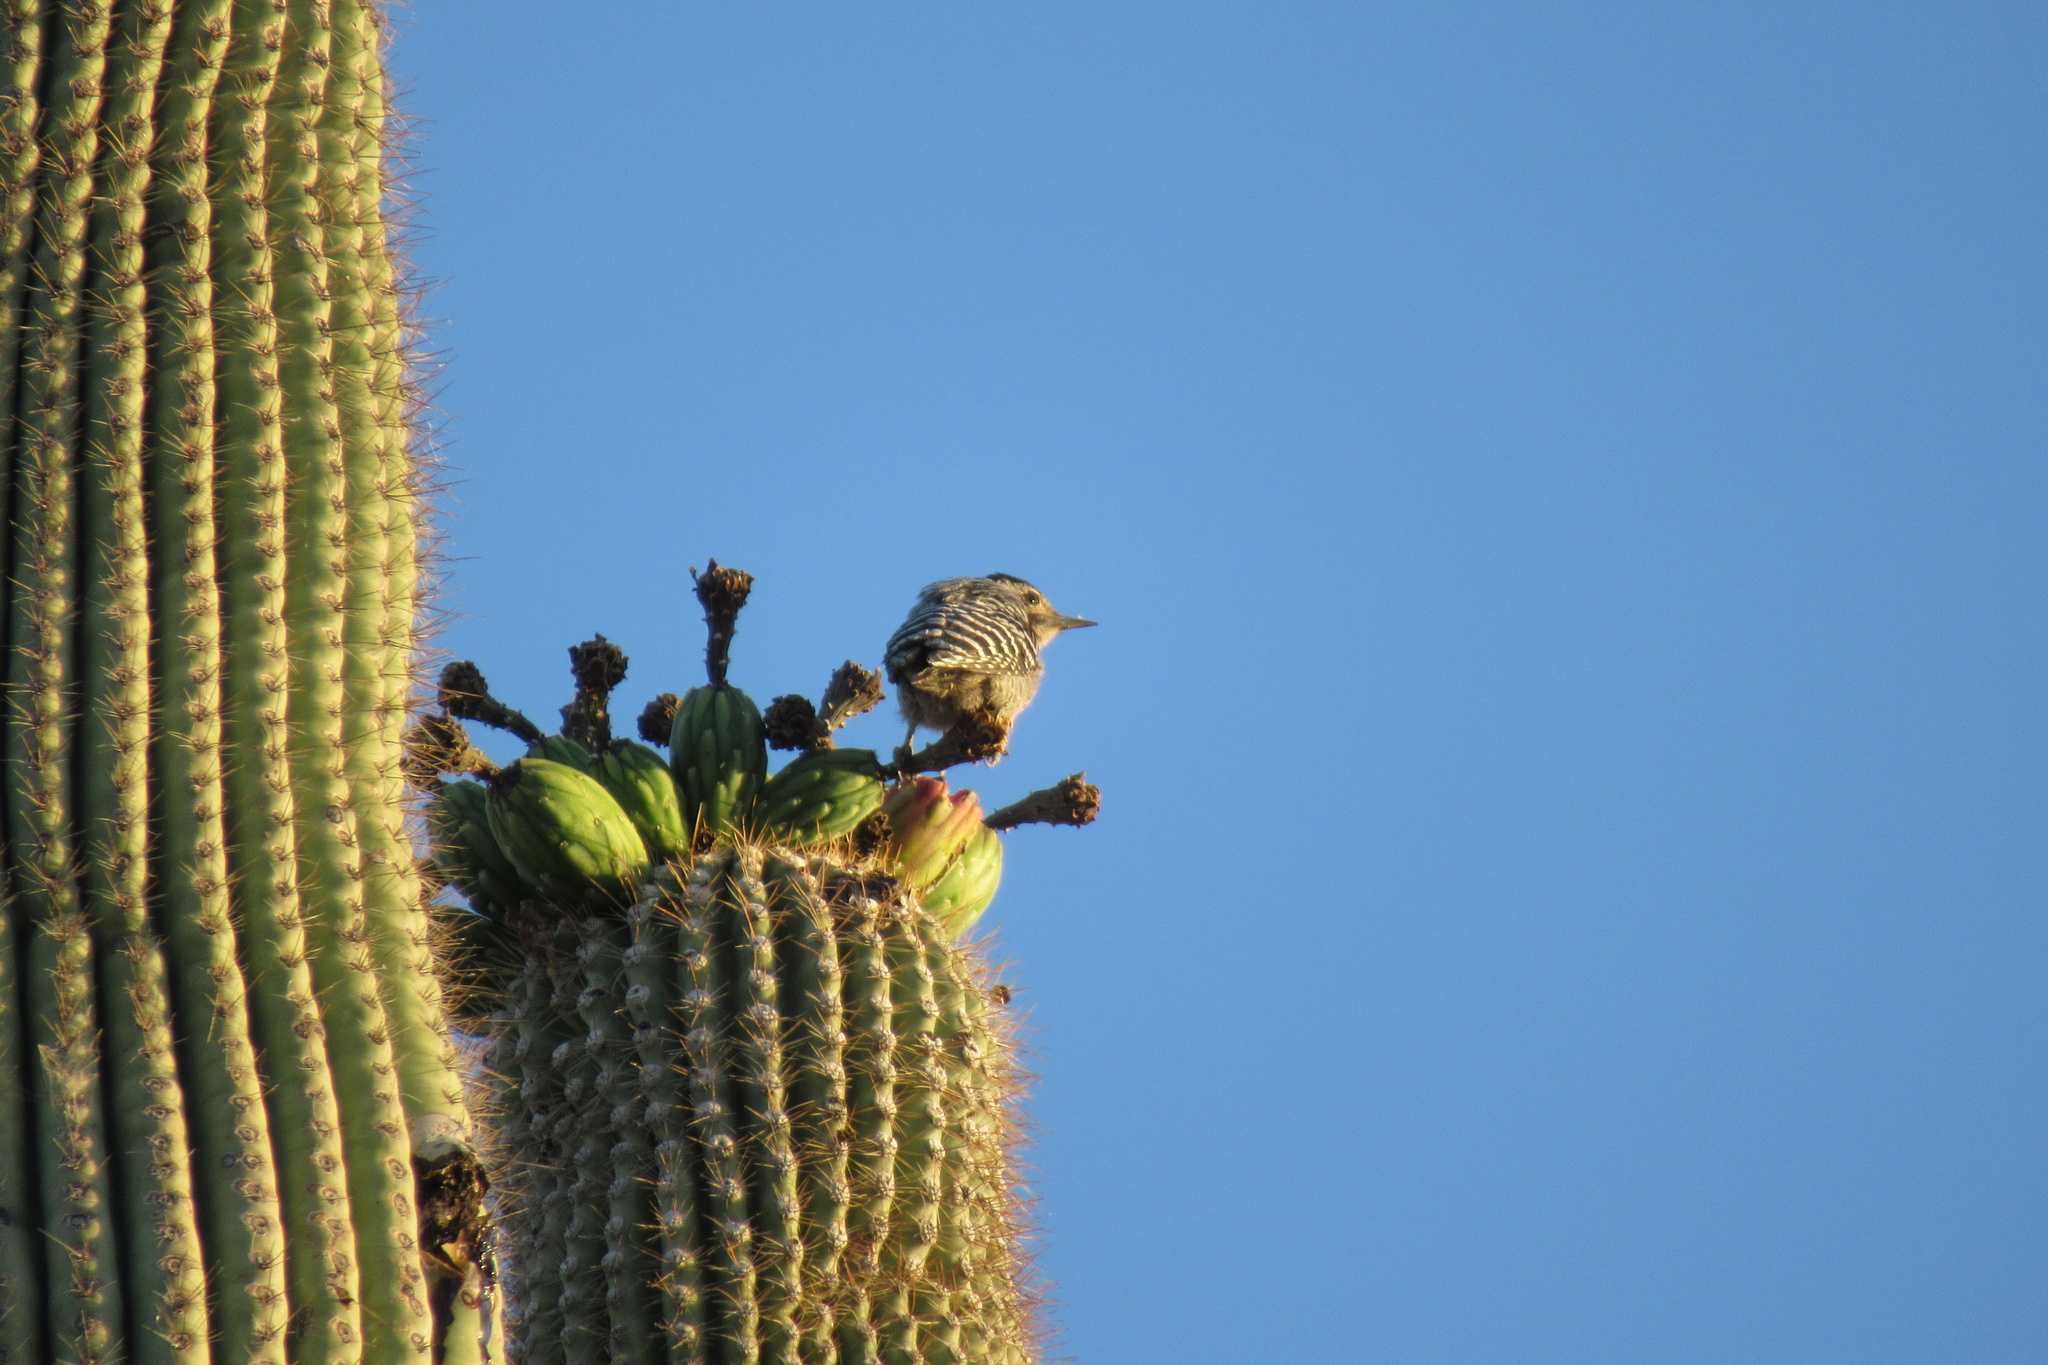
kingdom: Animalia
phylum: Chordata
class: Aves
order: Piciformes
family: Picidae
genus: Dryobates
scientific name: Dryobates scalaris
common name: Ladder-backed woodpecker
